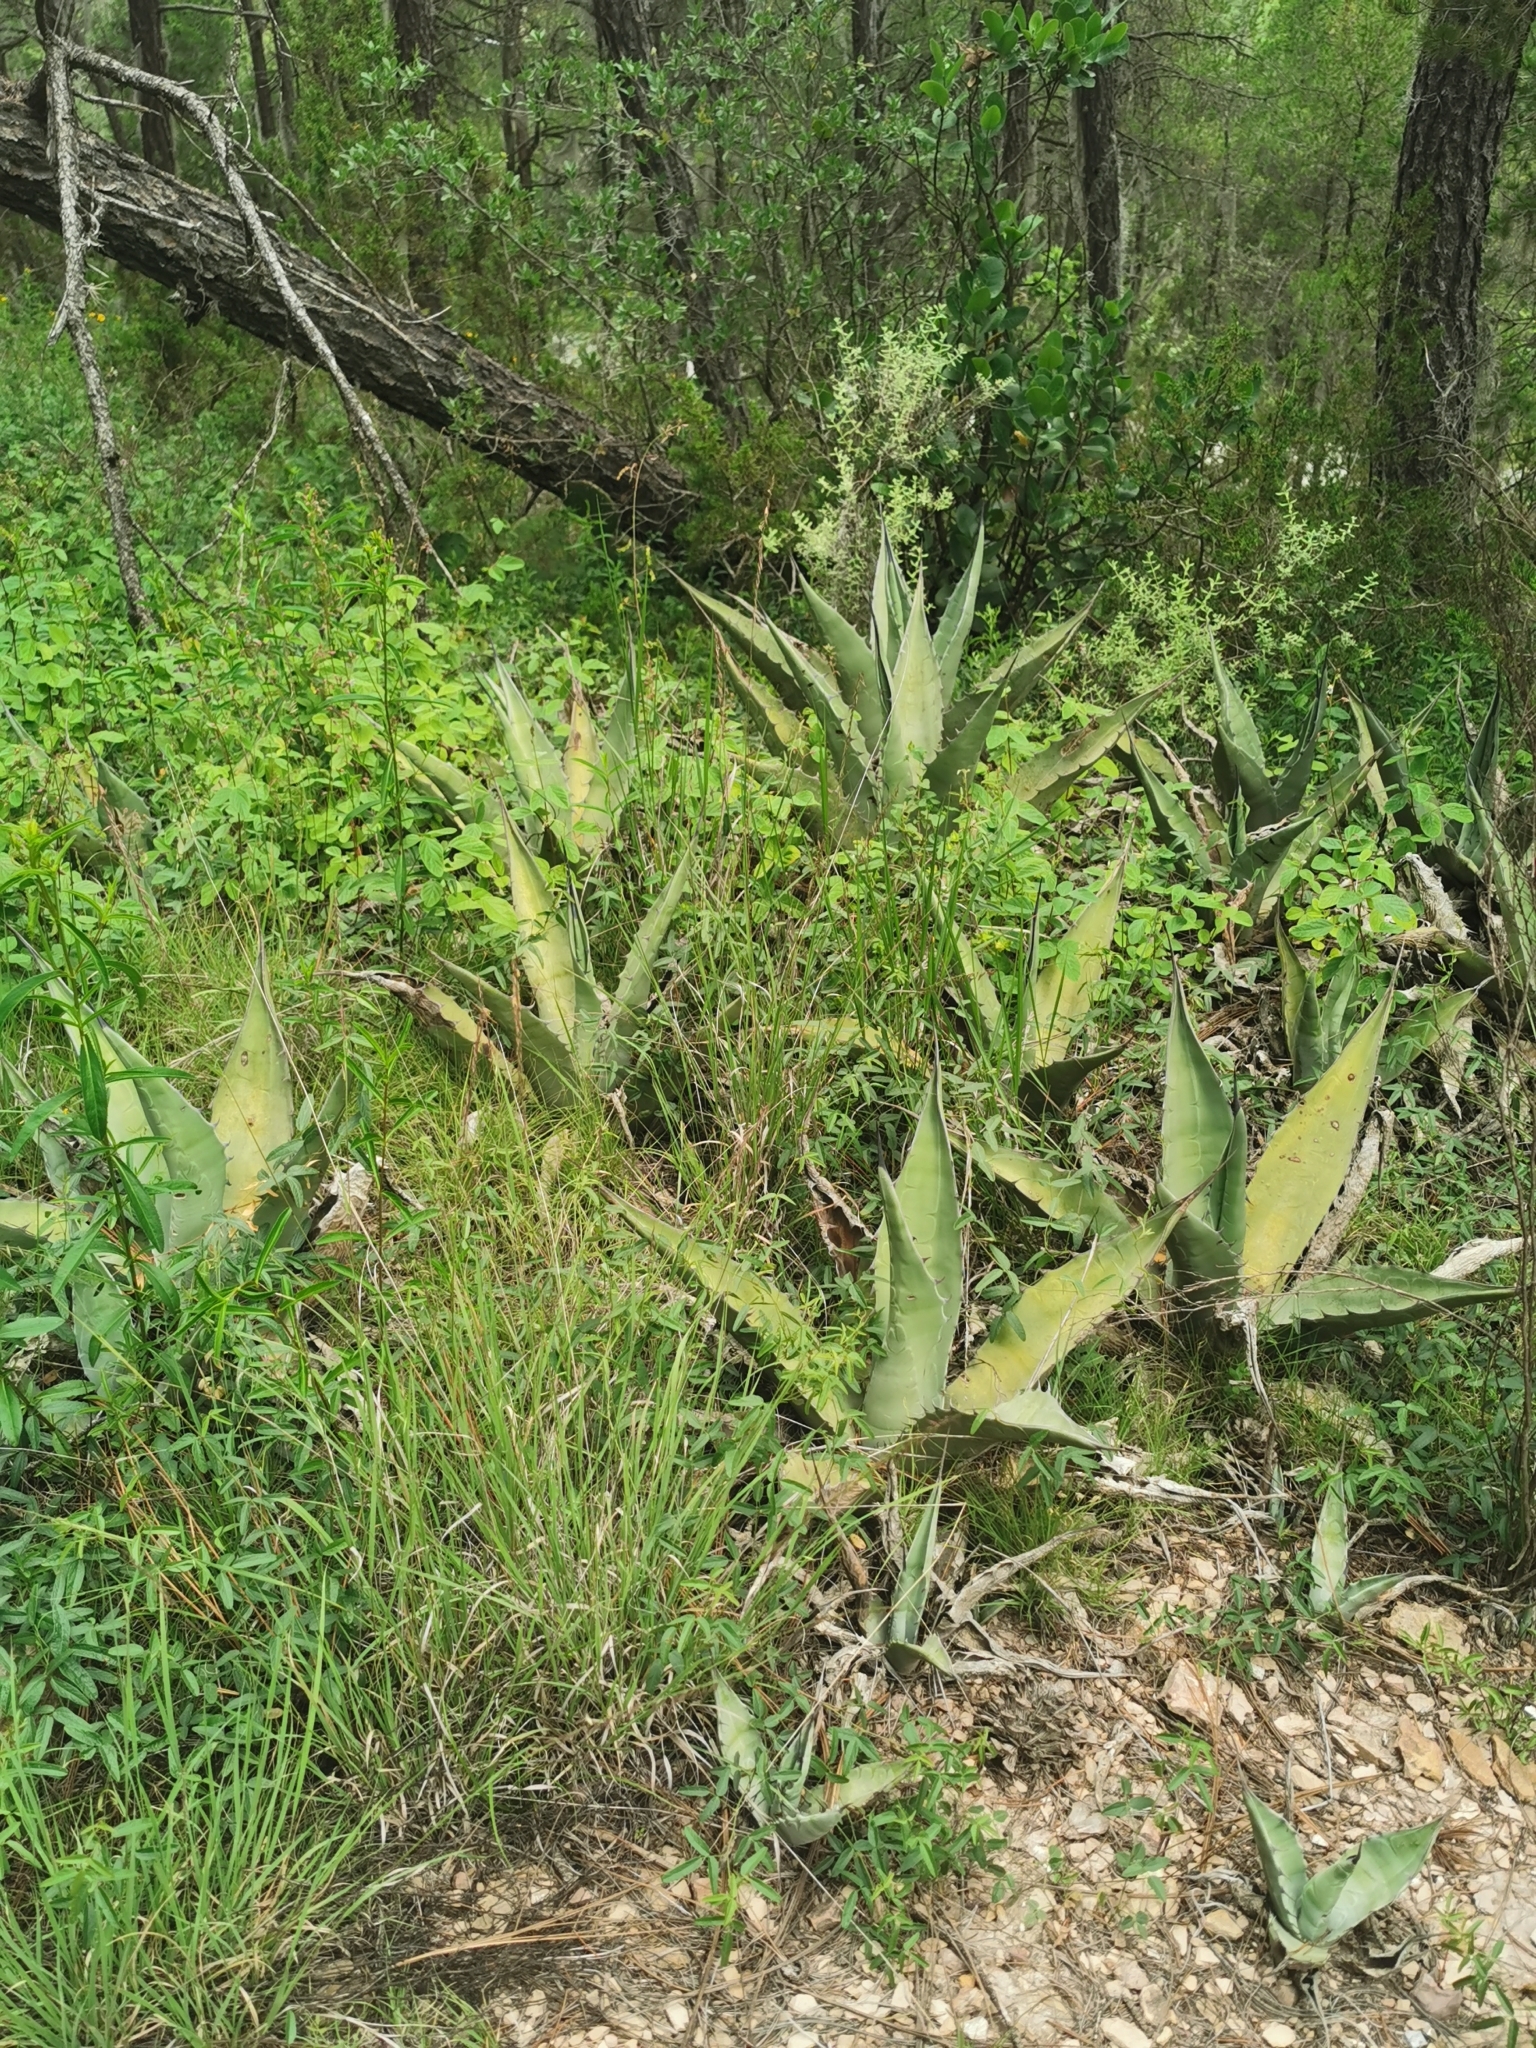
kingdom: Plantae
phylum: Tracheophyta
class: Liliopsida
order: Asparagales
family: Asparagaceae
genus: Agave
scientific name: Agave asperrima
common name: Rough agave
